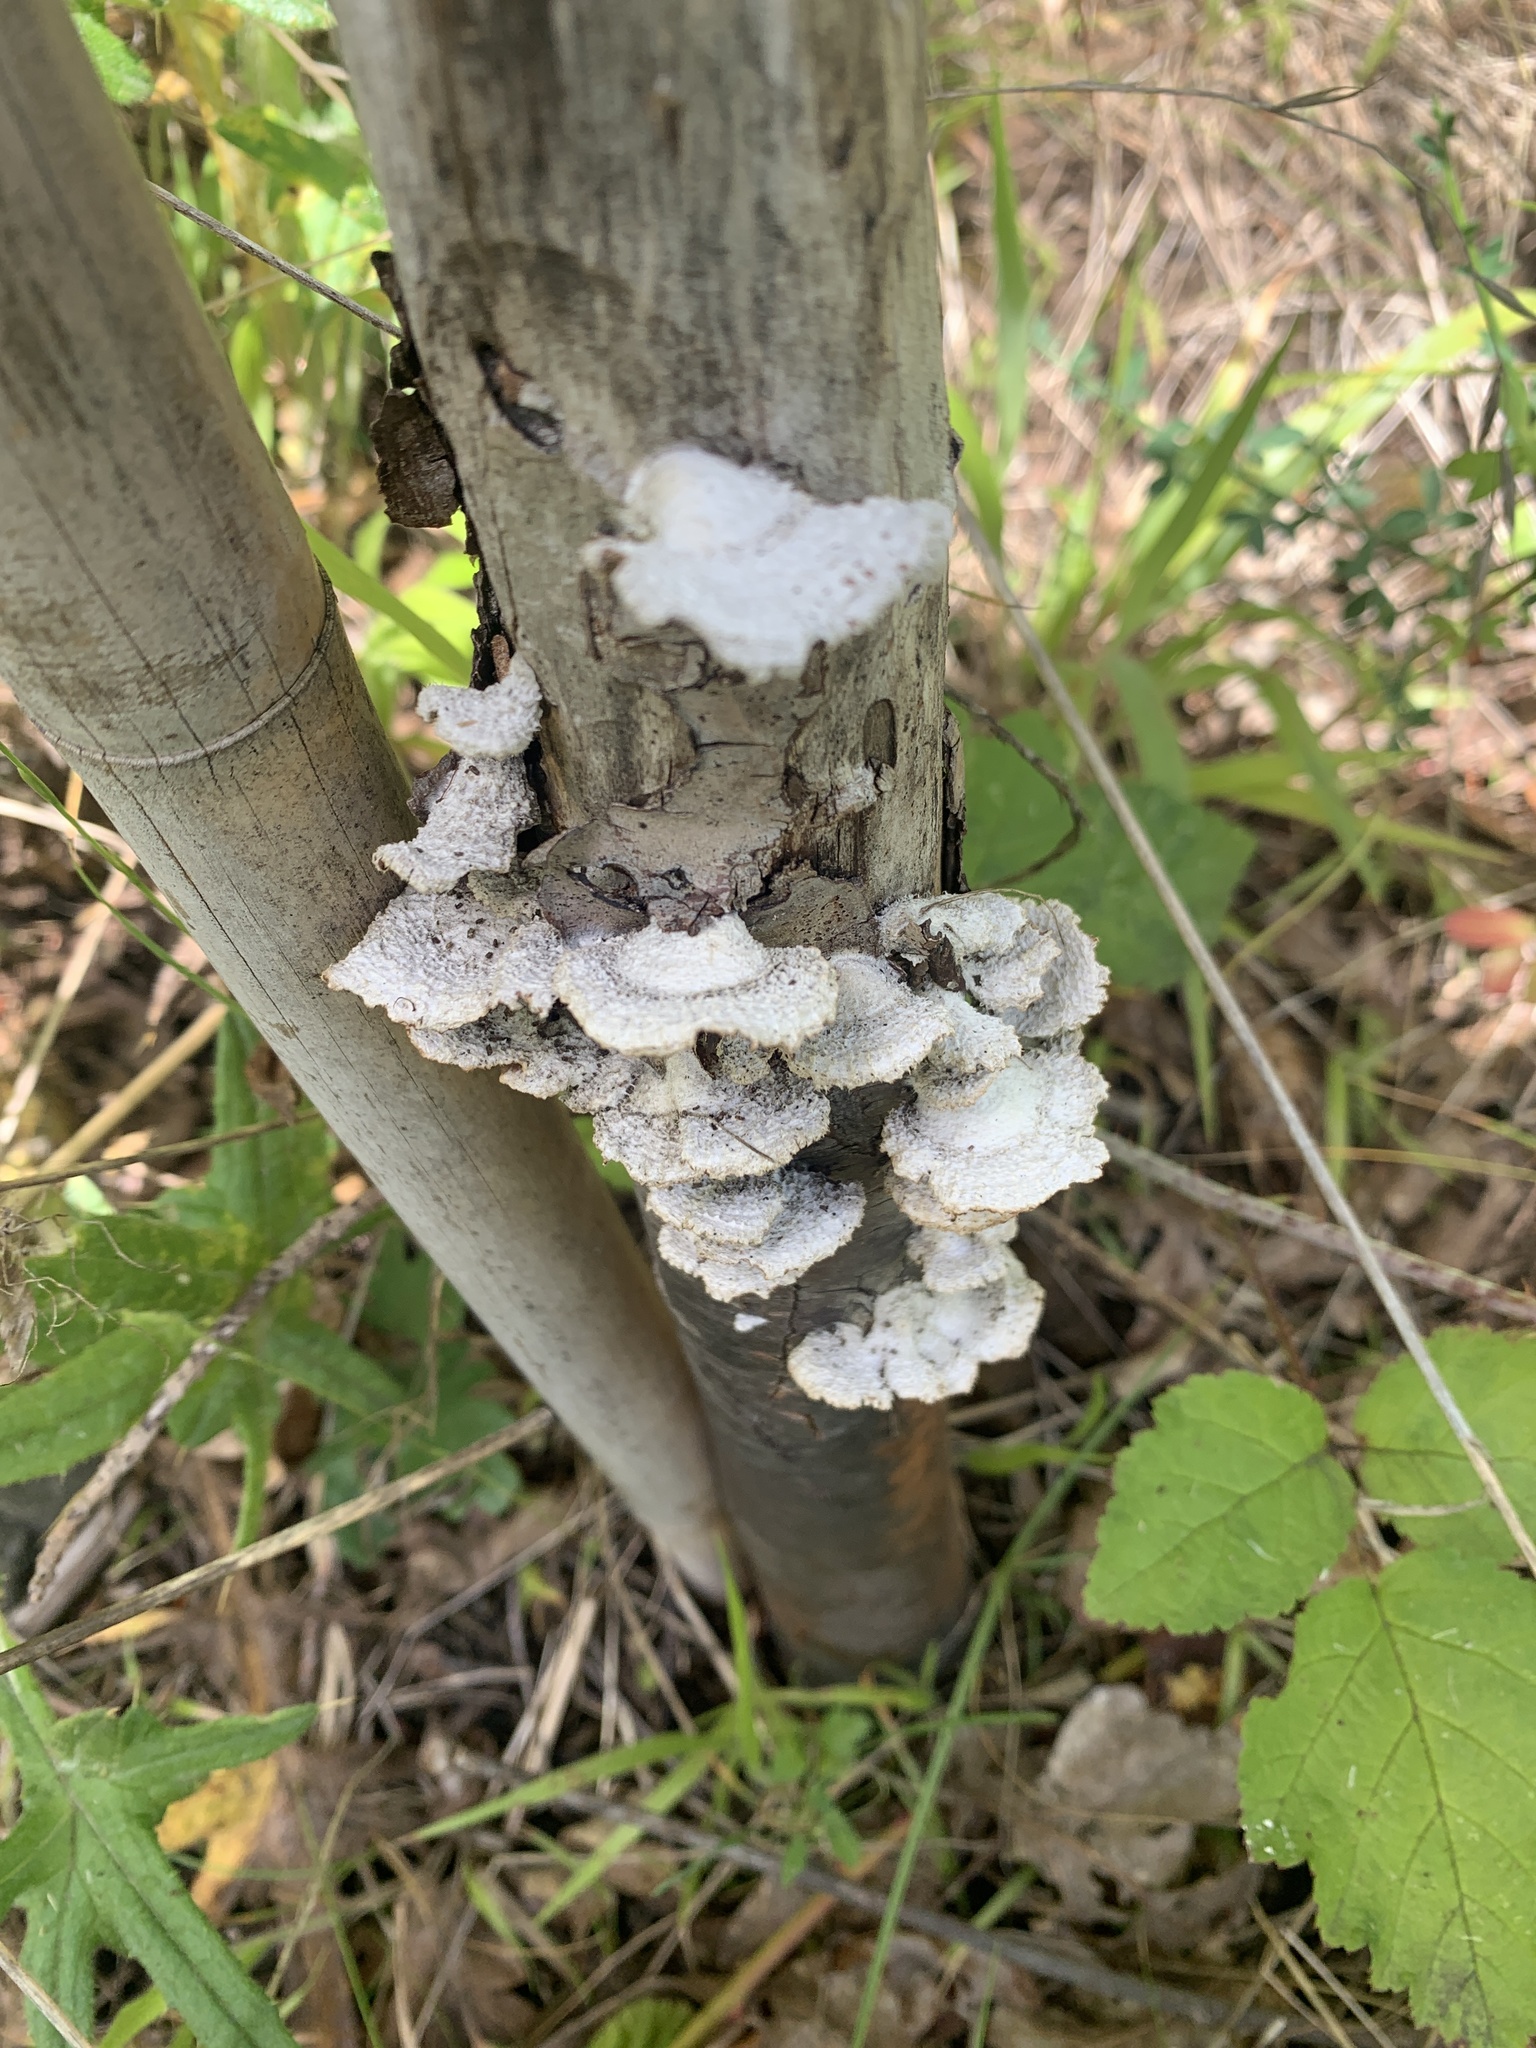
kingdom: Fungi
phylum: Basidiomycota
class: Agaricomycetes
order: Agaricales
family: Schizophyllaceae
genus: Schizophyllum
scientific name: Schizophyllum commune
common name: Common porecrust
